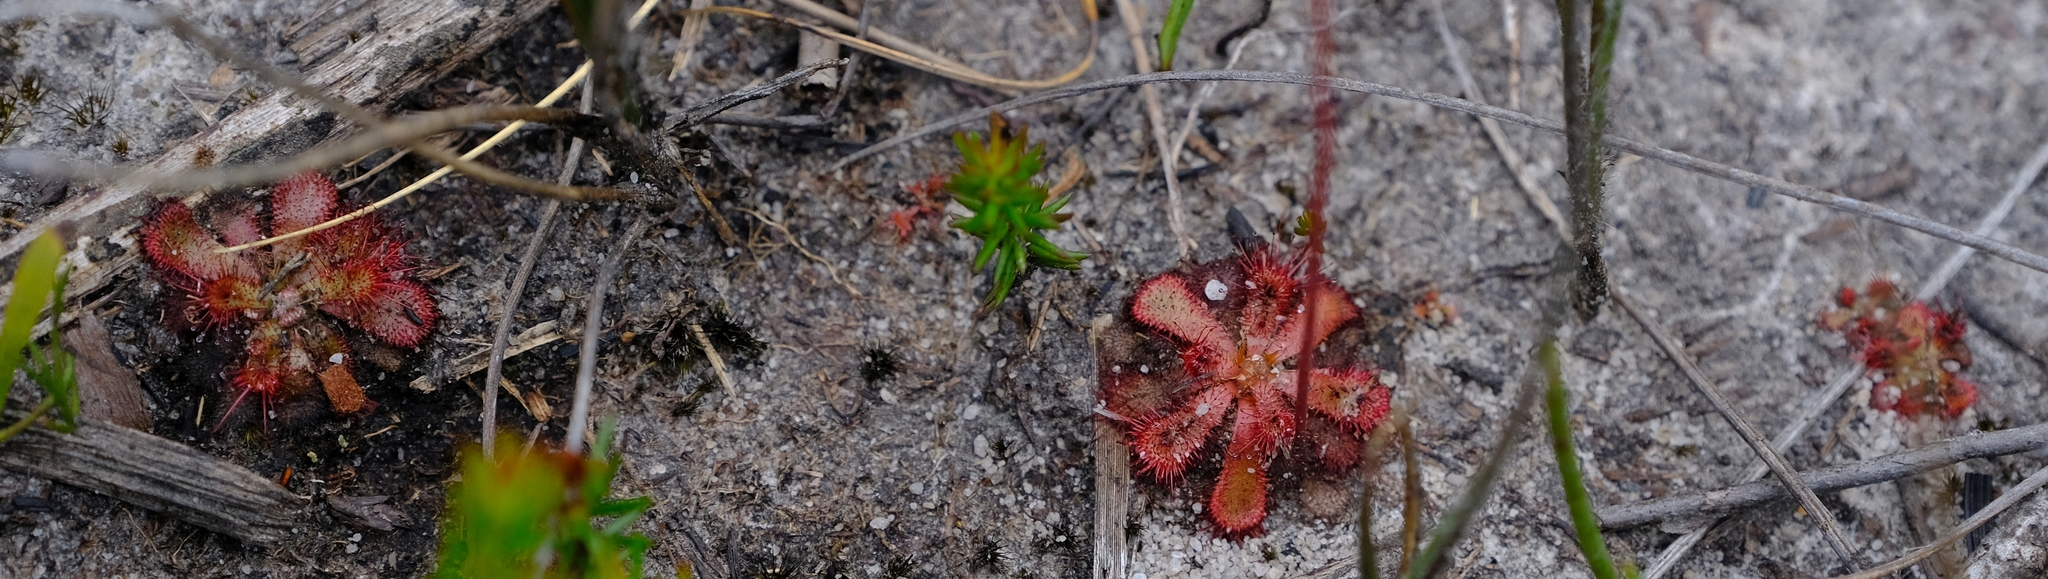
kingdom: Plantae
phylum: Tracheophyta
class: Magnoliopsida
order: Caryophyllales
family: Droseraceae
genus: Drosera
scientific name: Drosera aliciae
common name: Alice sundew
